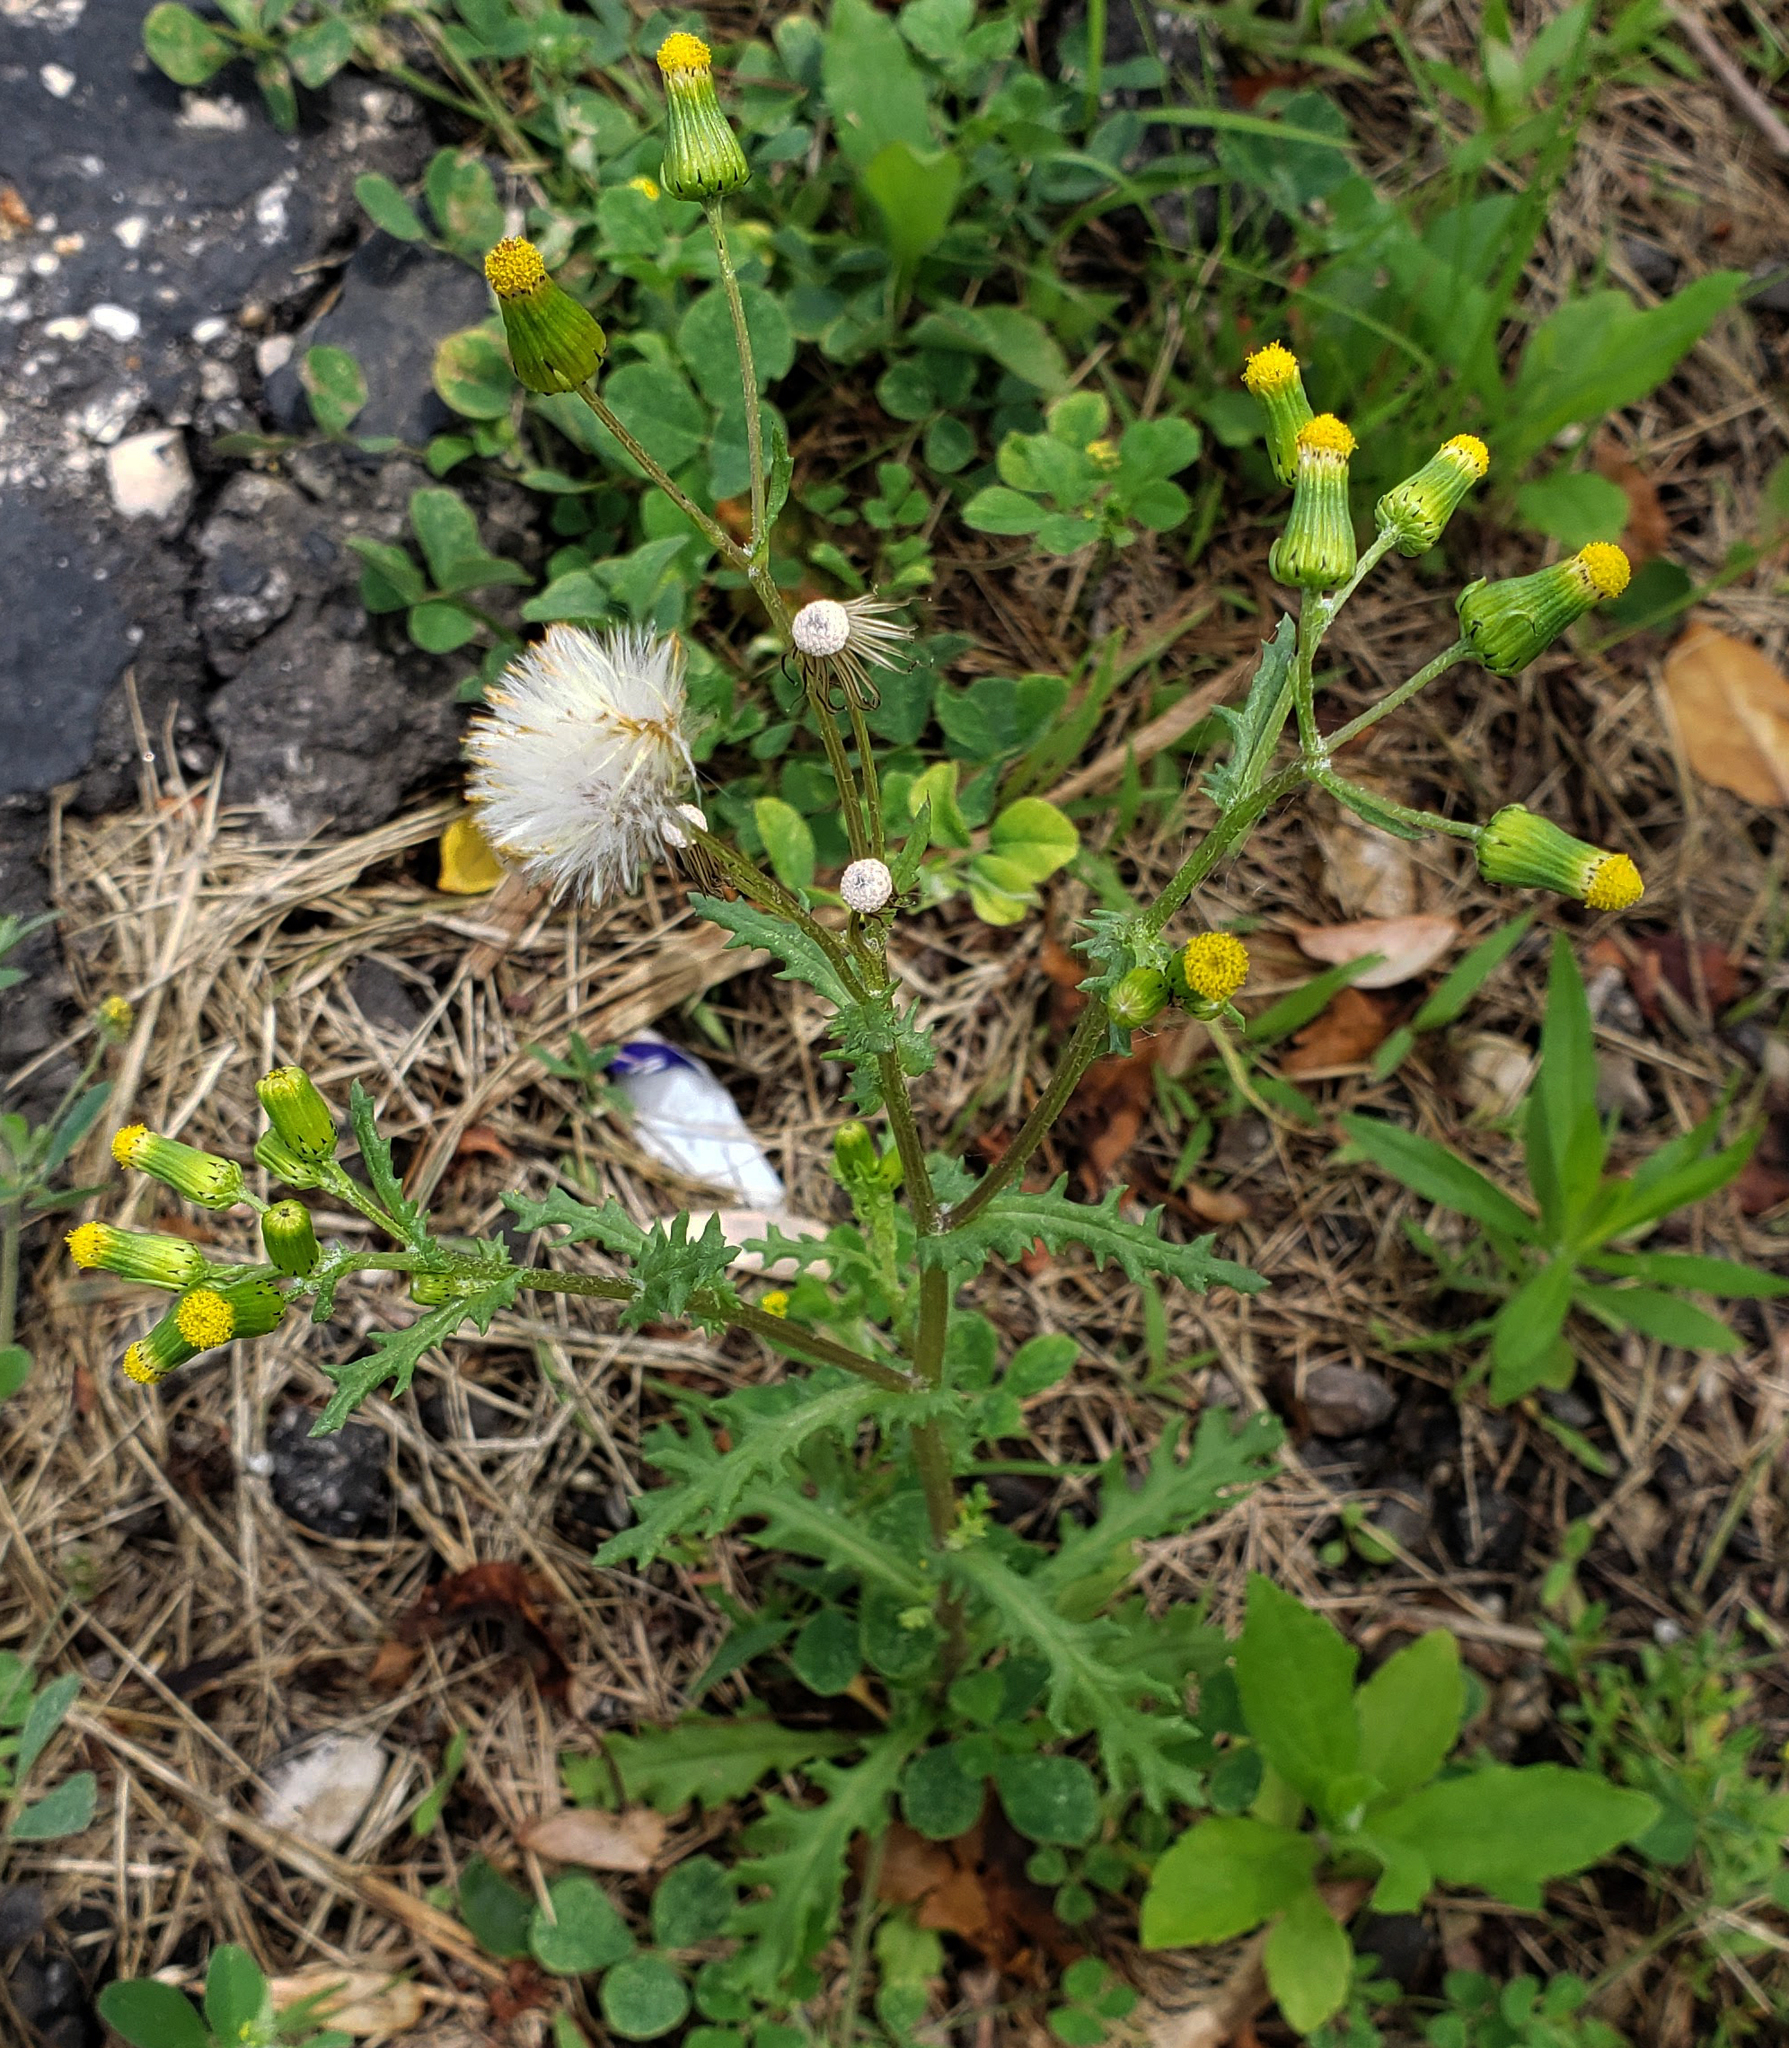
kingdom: Plantae
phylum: Tracheophyta
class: Magnoliopsida
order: Asterales
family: Asteraceae
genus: Senecio
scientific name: Senecio vulgaris
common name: Old-man-in-the-spring
